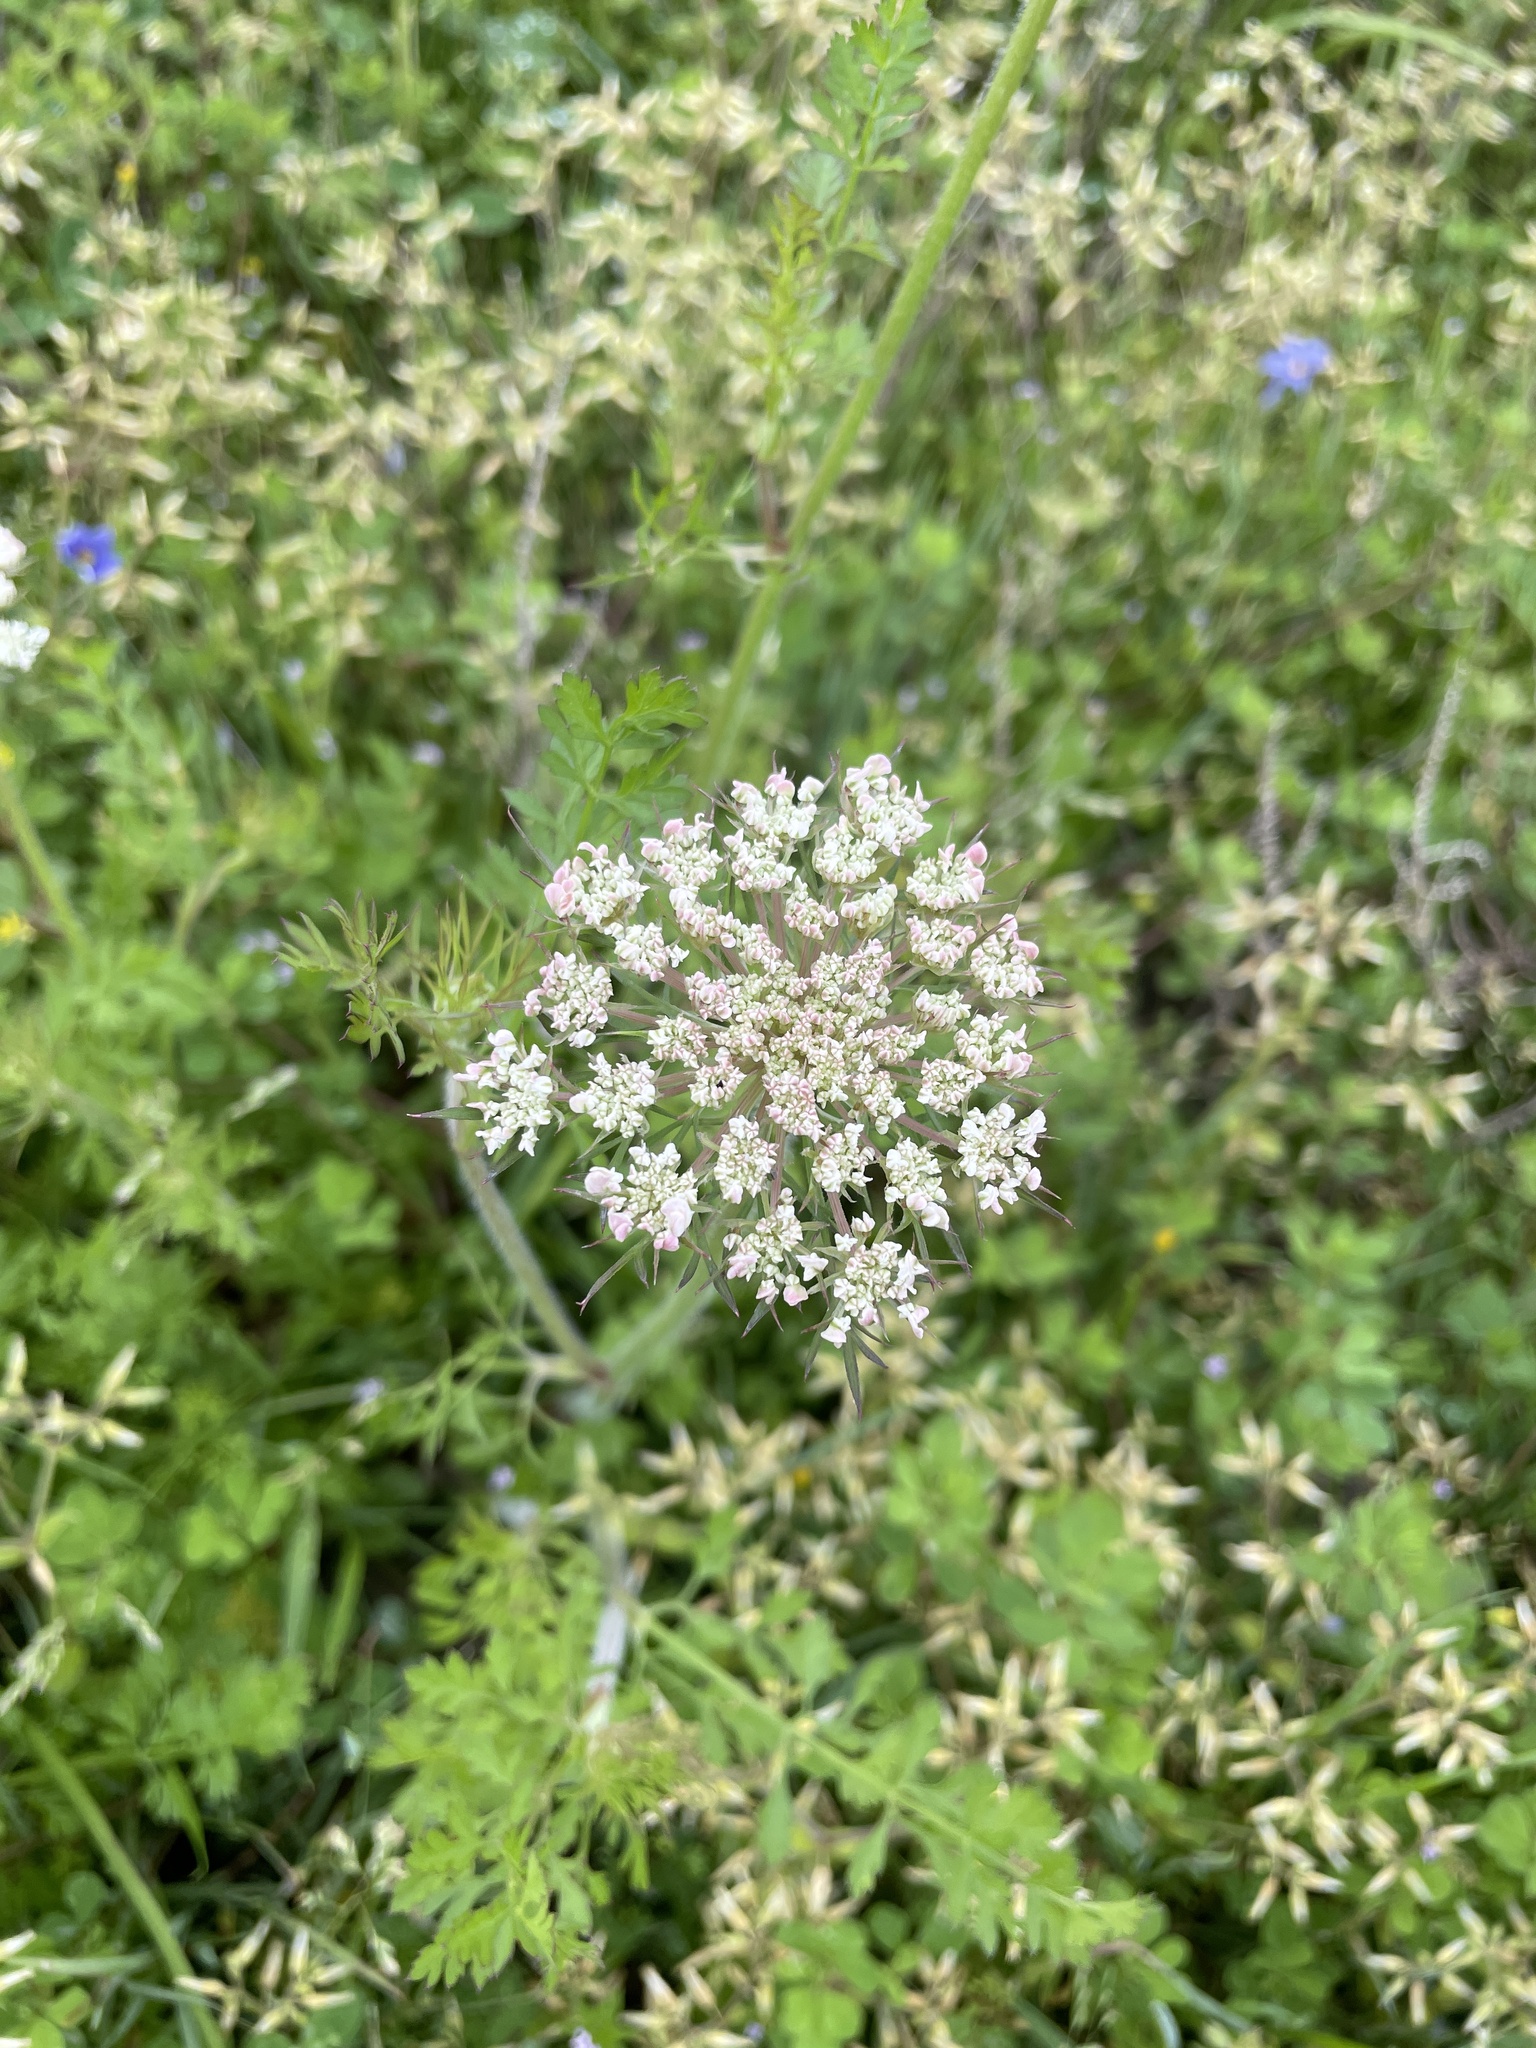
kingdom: Plantae
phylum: Tracheophyta
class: Magnoliopsida
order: Apiales
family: Apiaceae
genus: Daucus
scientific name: Daucus carota
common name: Wild carrot
